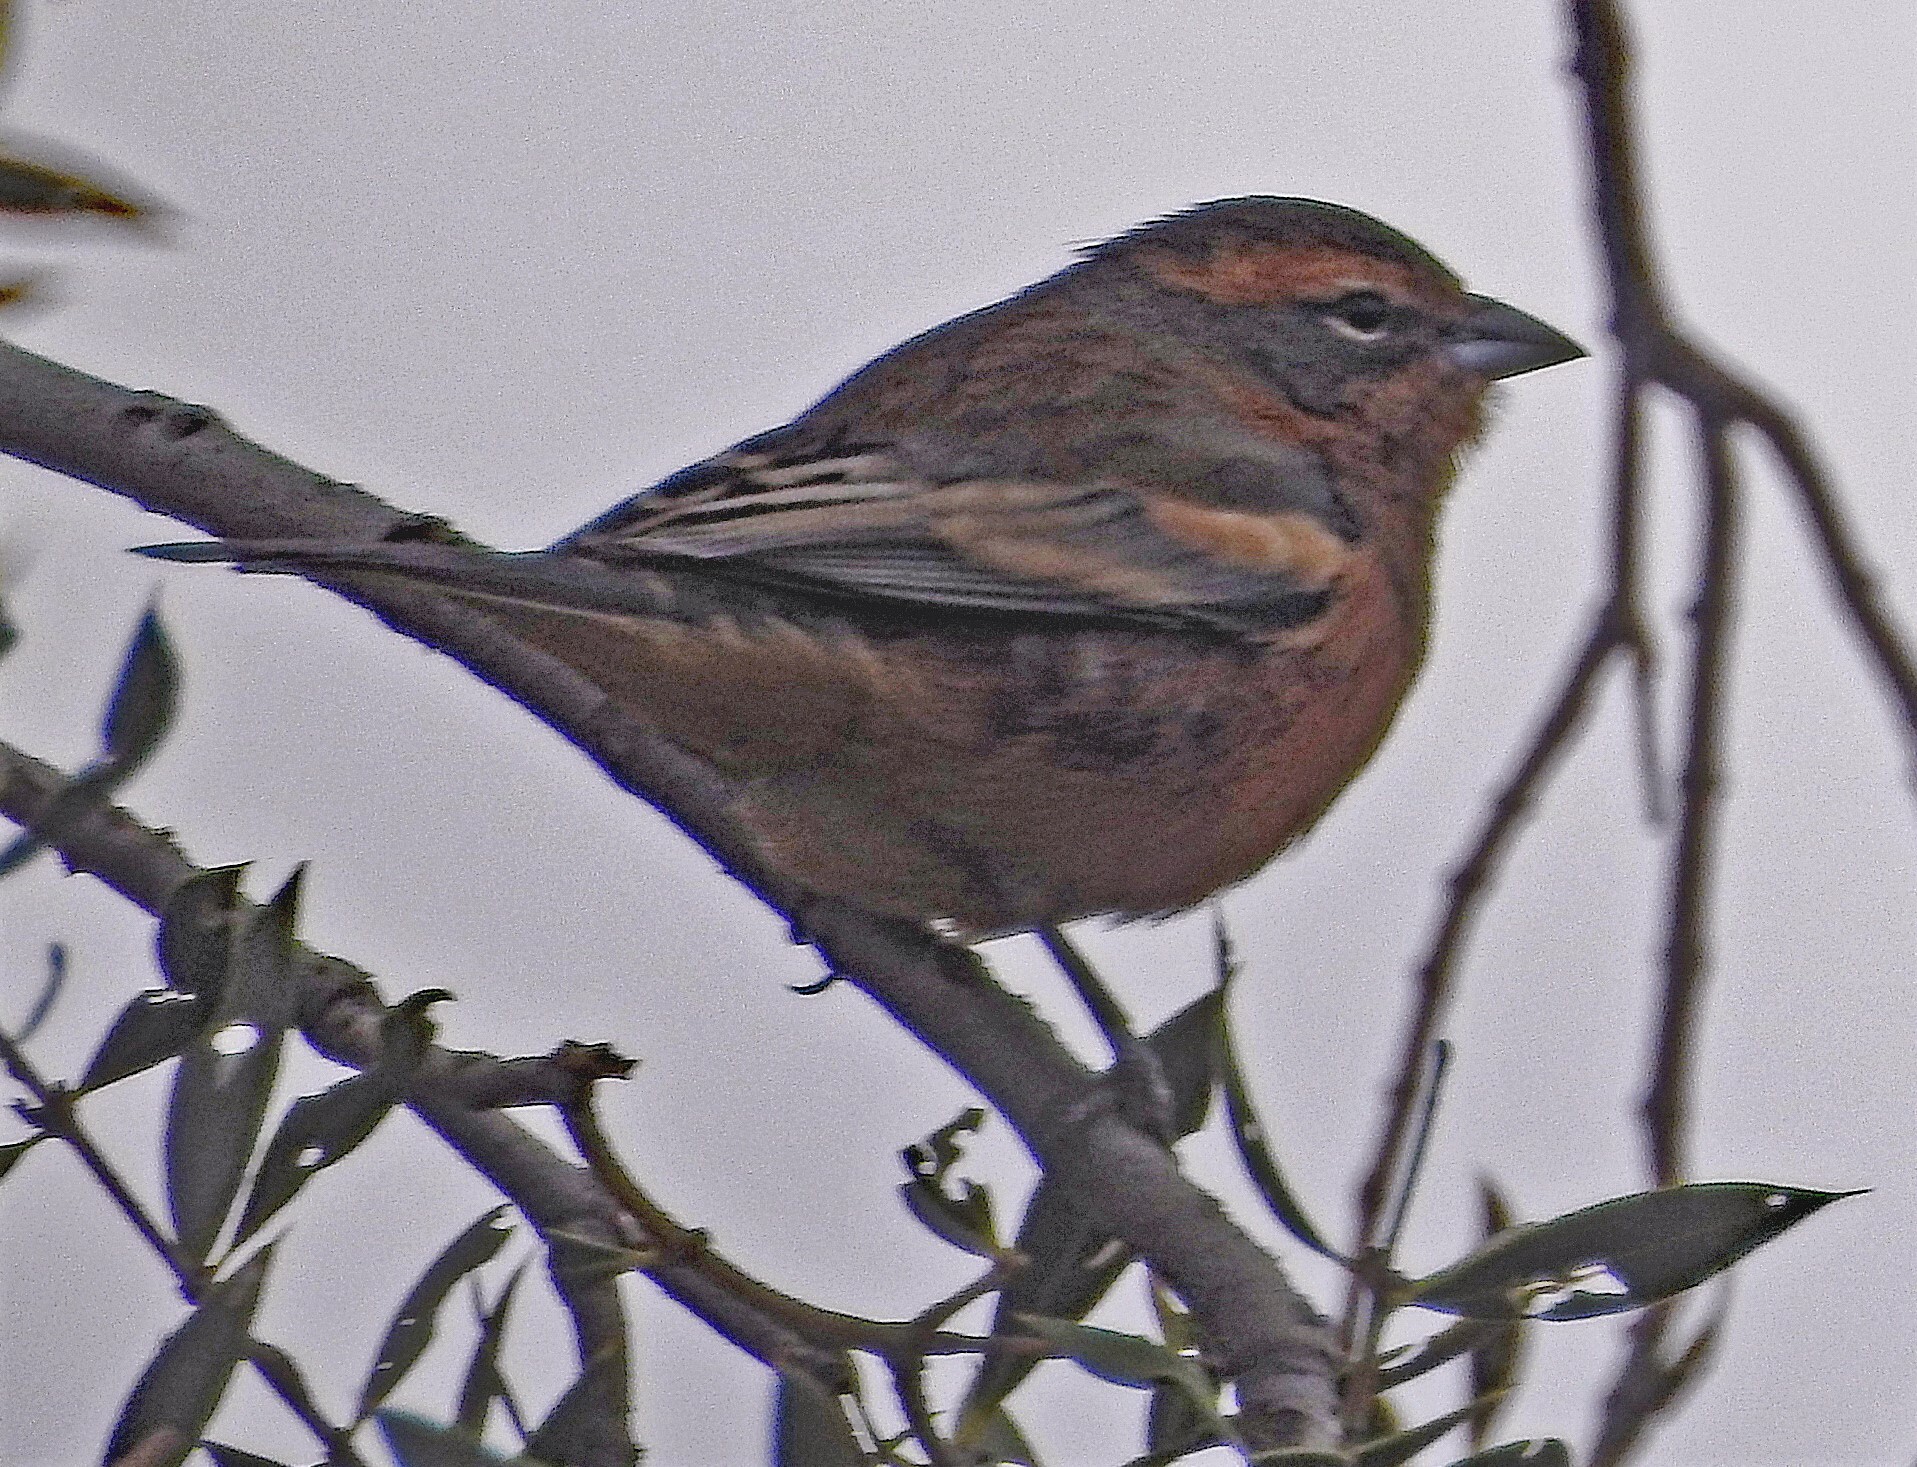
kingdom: Animalia
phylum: Chordata
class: Aves
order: Passeriformes
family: Thraupidae
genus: Poospiza
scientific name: Poospiza ornata
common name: Cinnamon warbling finch
